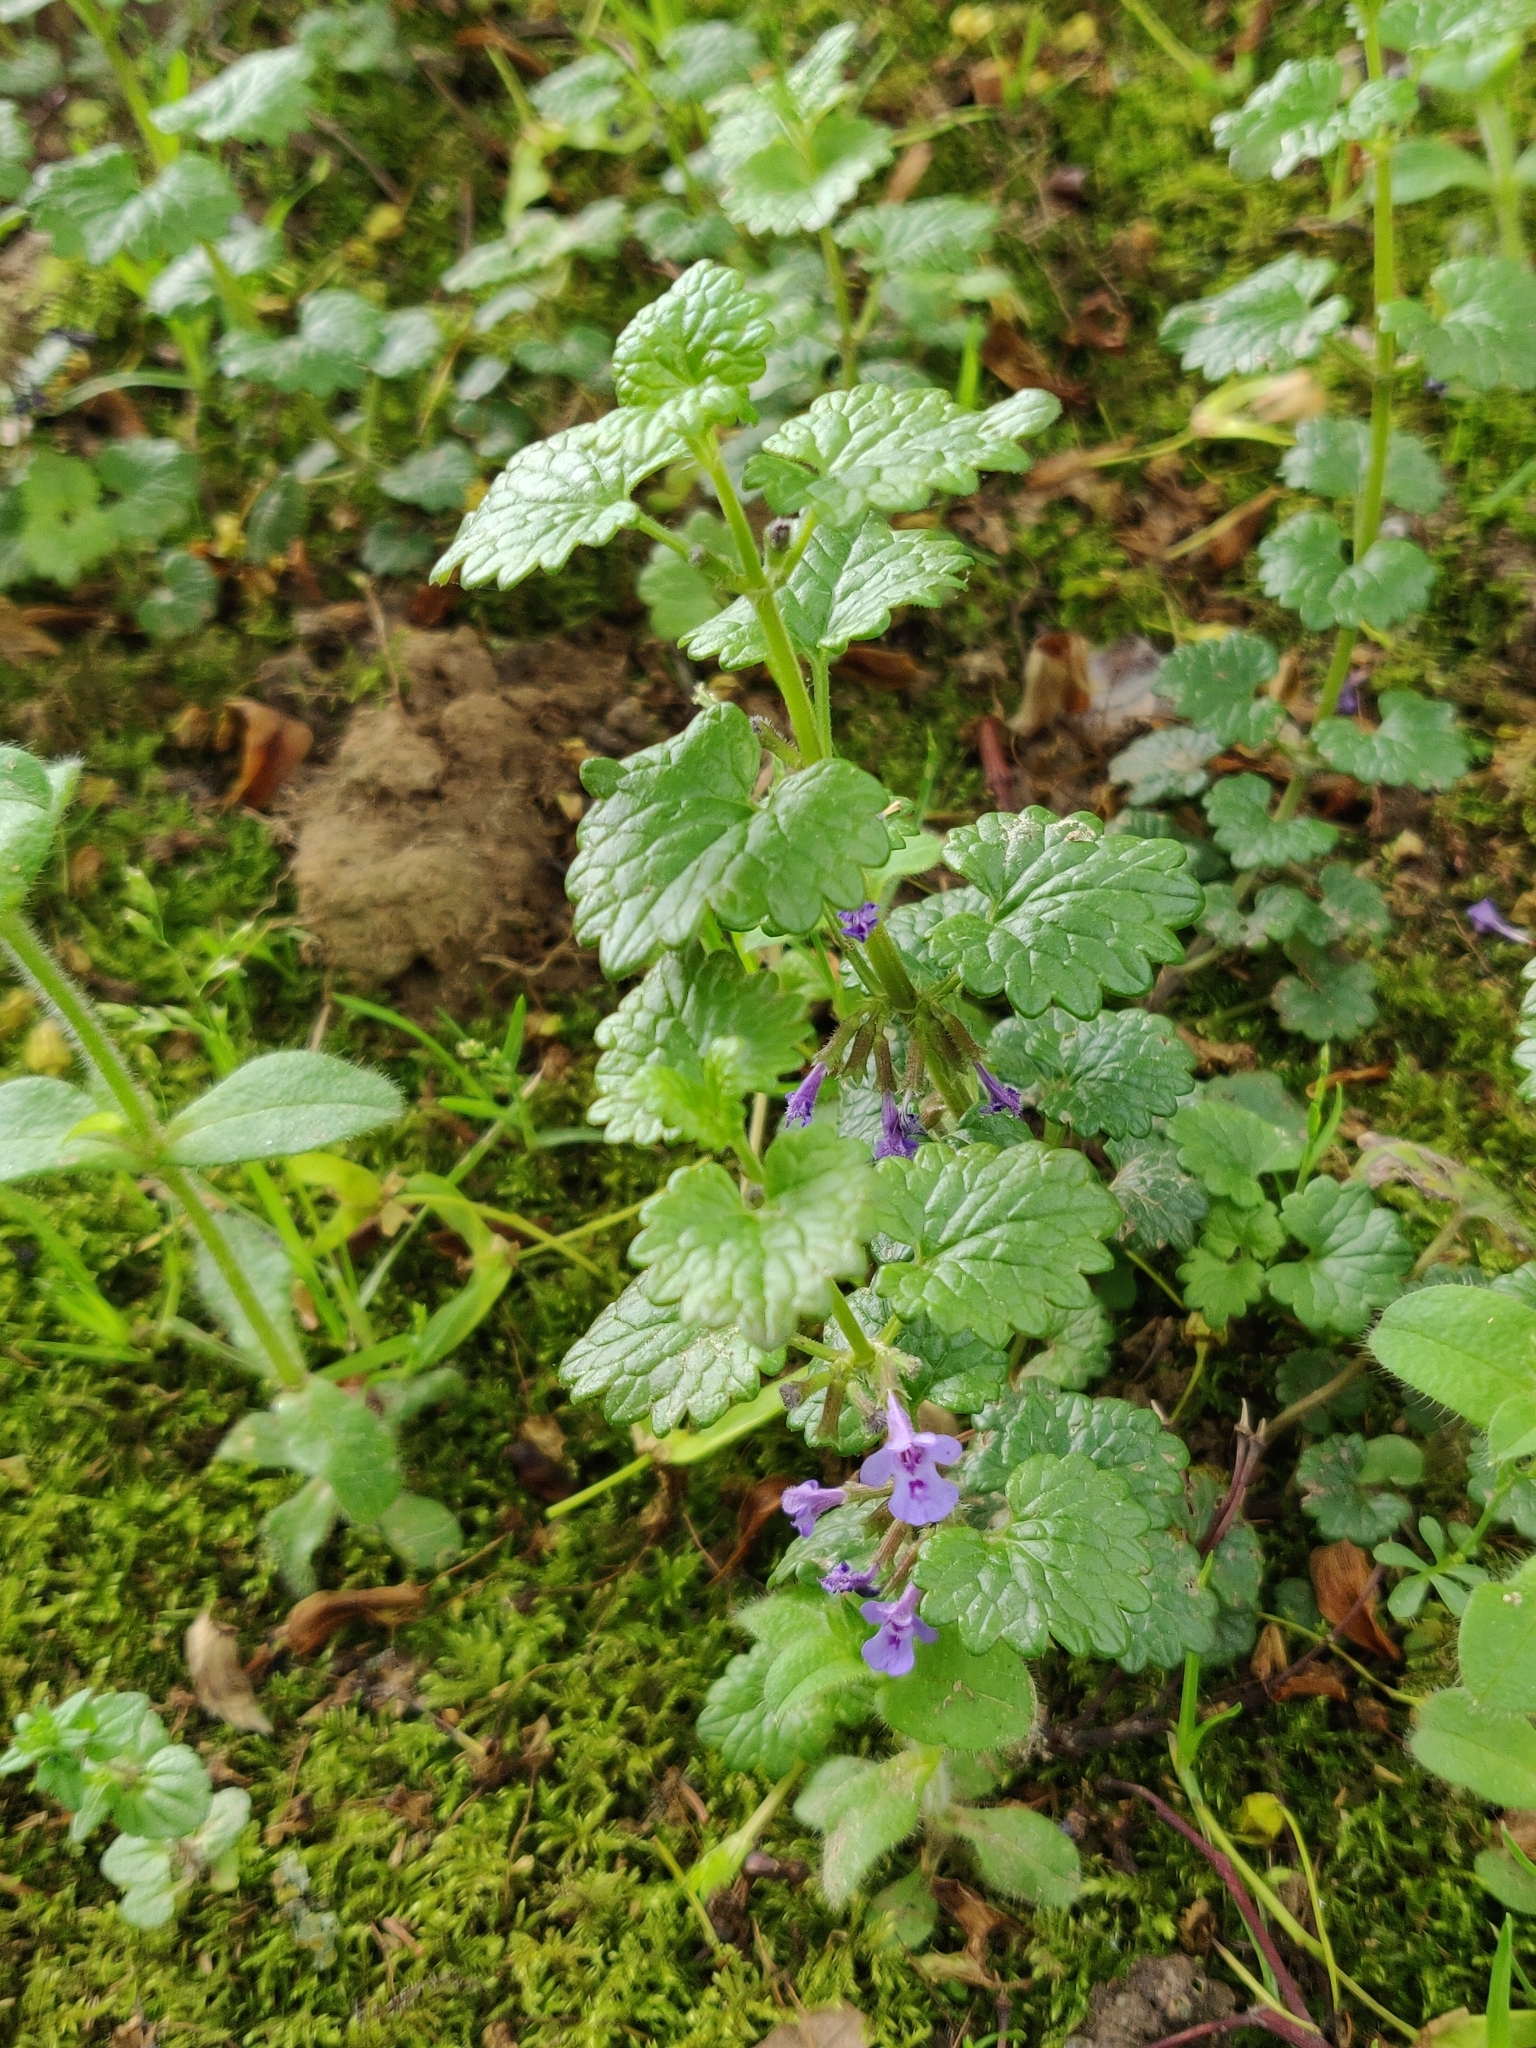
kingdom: Plantae
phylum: Tracheophyta
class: Magnoliopsida
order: Lamiales
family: Lamiaceae
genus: Glechoma
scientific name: Glechoma hederacea
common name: Ground ivy
